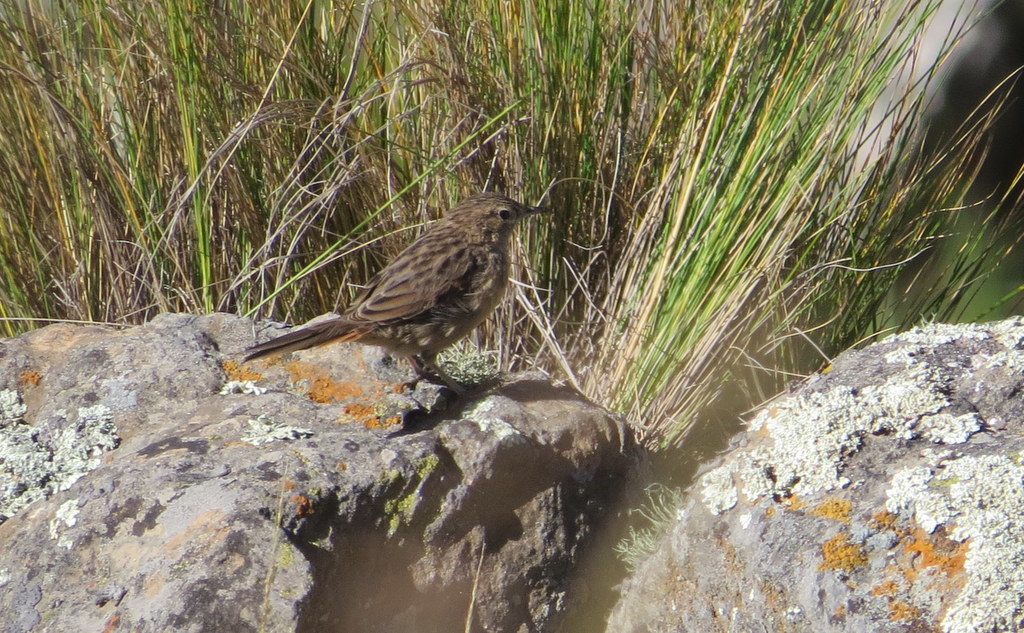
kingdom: Animalia
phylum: Chordata
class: Aves
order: Passeriformes
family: Furnariidae
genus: Asthenes
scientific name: Asthenes wyatti
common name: Streak-backed canastero
